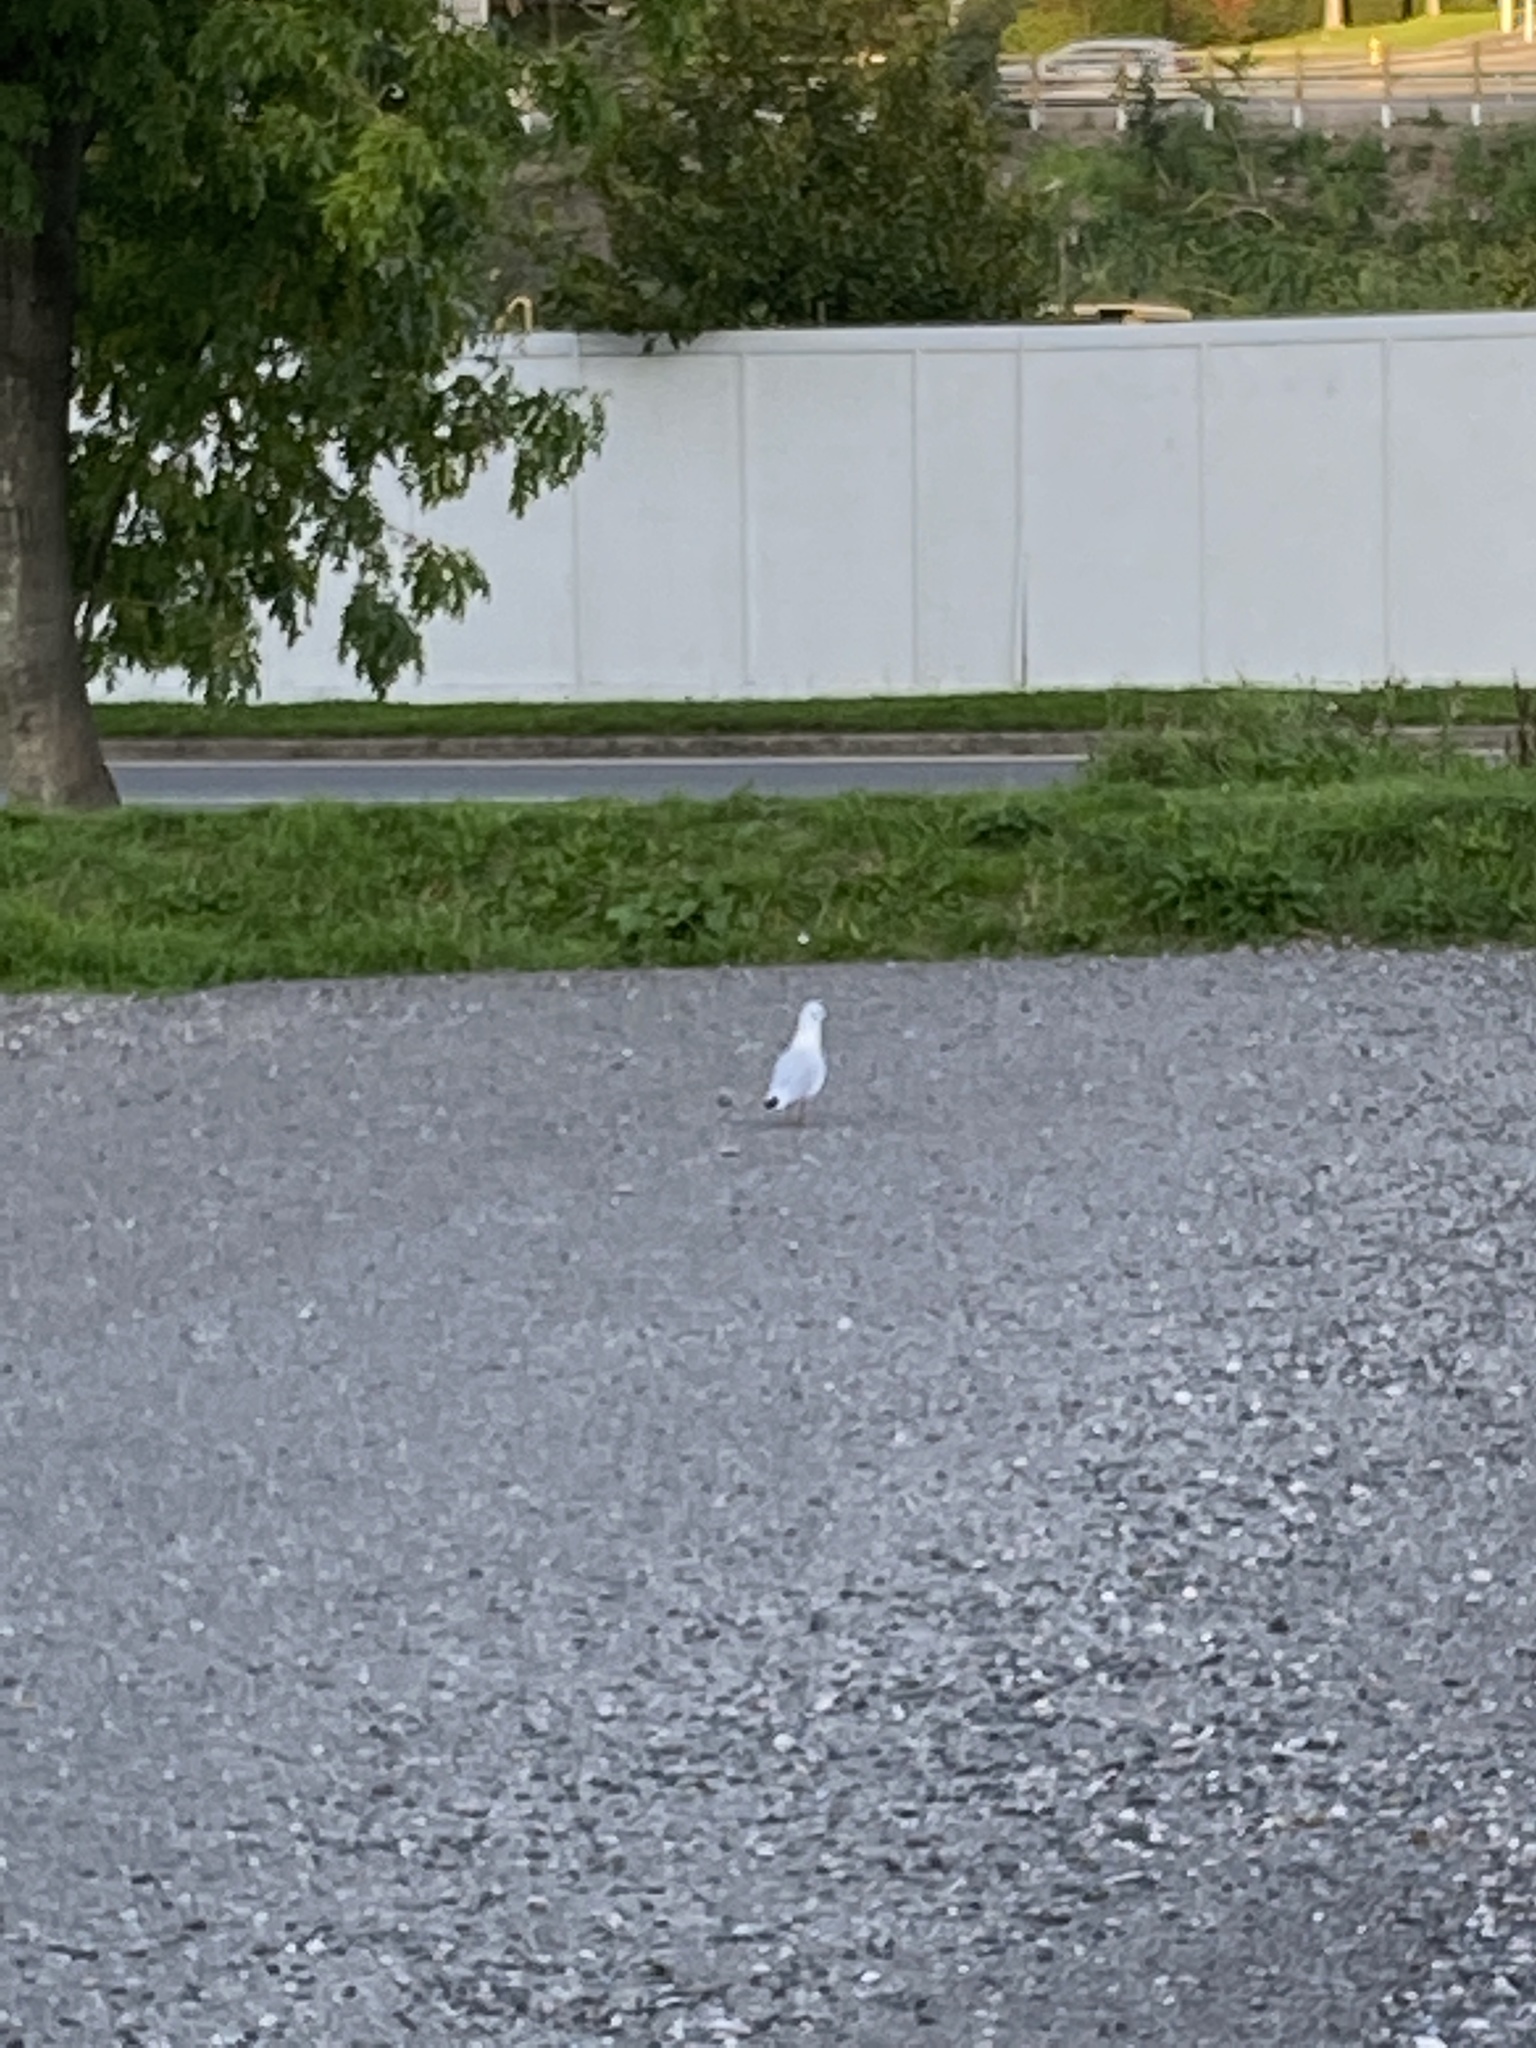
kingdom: Animalia
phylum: Chordata
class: Aves
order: Charadriiformes
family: Laridae
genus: Chroicocephalus
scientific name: Chroicocephalus ridibundus
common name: Black-headed gull
